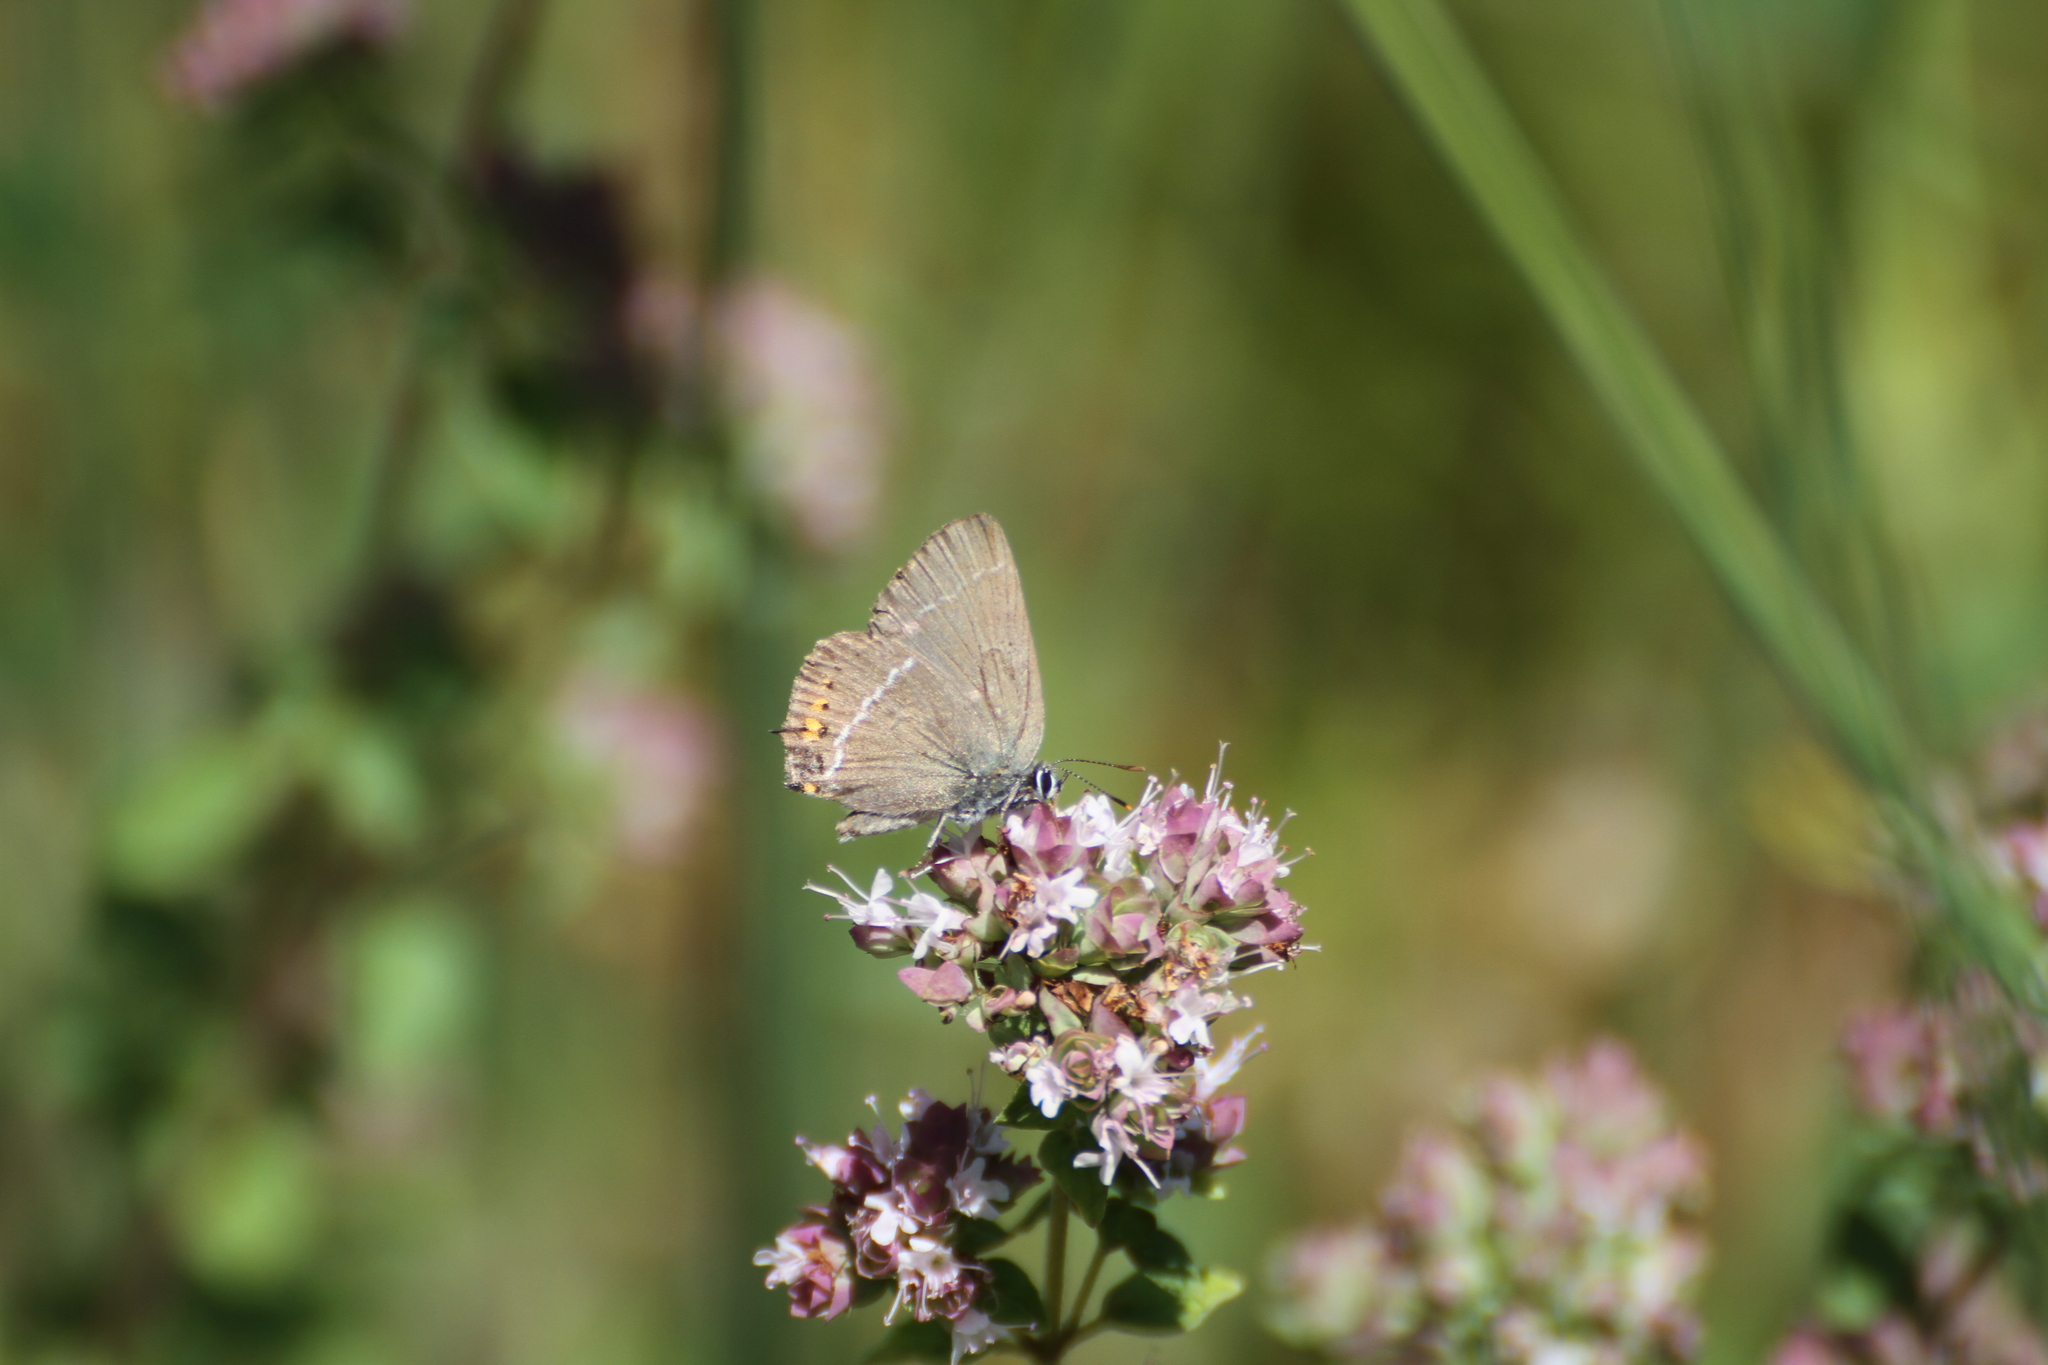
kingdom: Animalia
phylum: Arthropoda
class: Insecta
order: Lepidoptera
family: Lycaenidae
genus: Tuttiola
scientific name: Tuttiola spini
